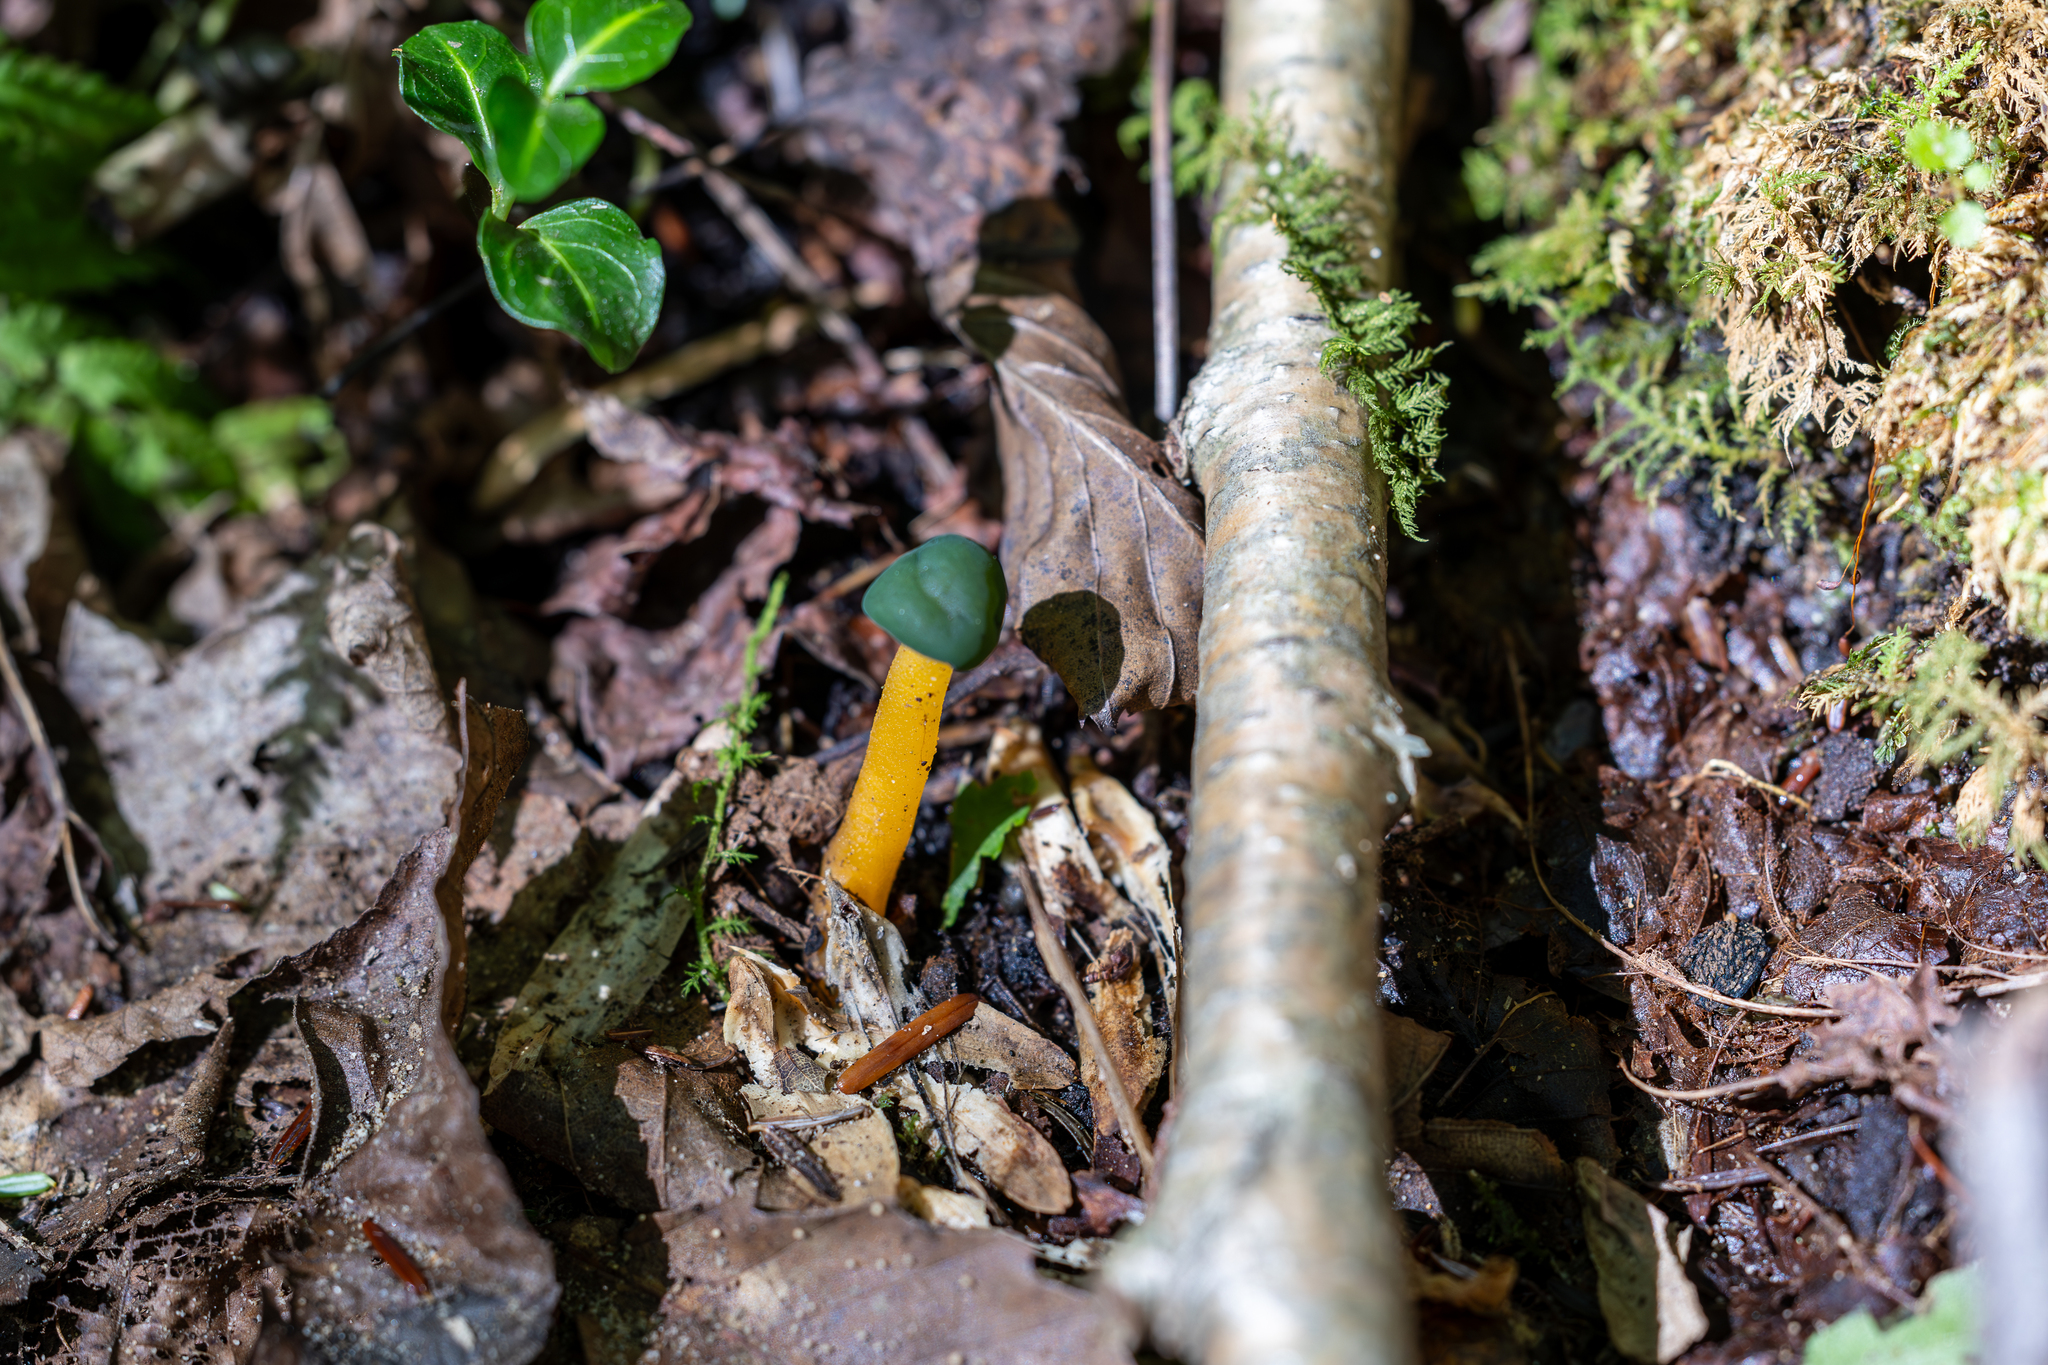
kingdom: Fungi
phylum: Ascomycota
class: Leotiomycetes
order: Leotiales
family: Leotiaceae
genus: Leotia
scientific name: Leotia lubrica
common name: Jellybaby
